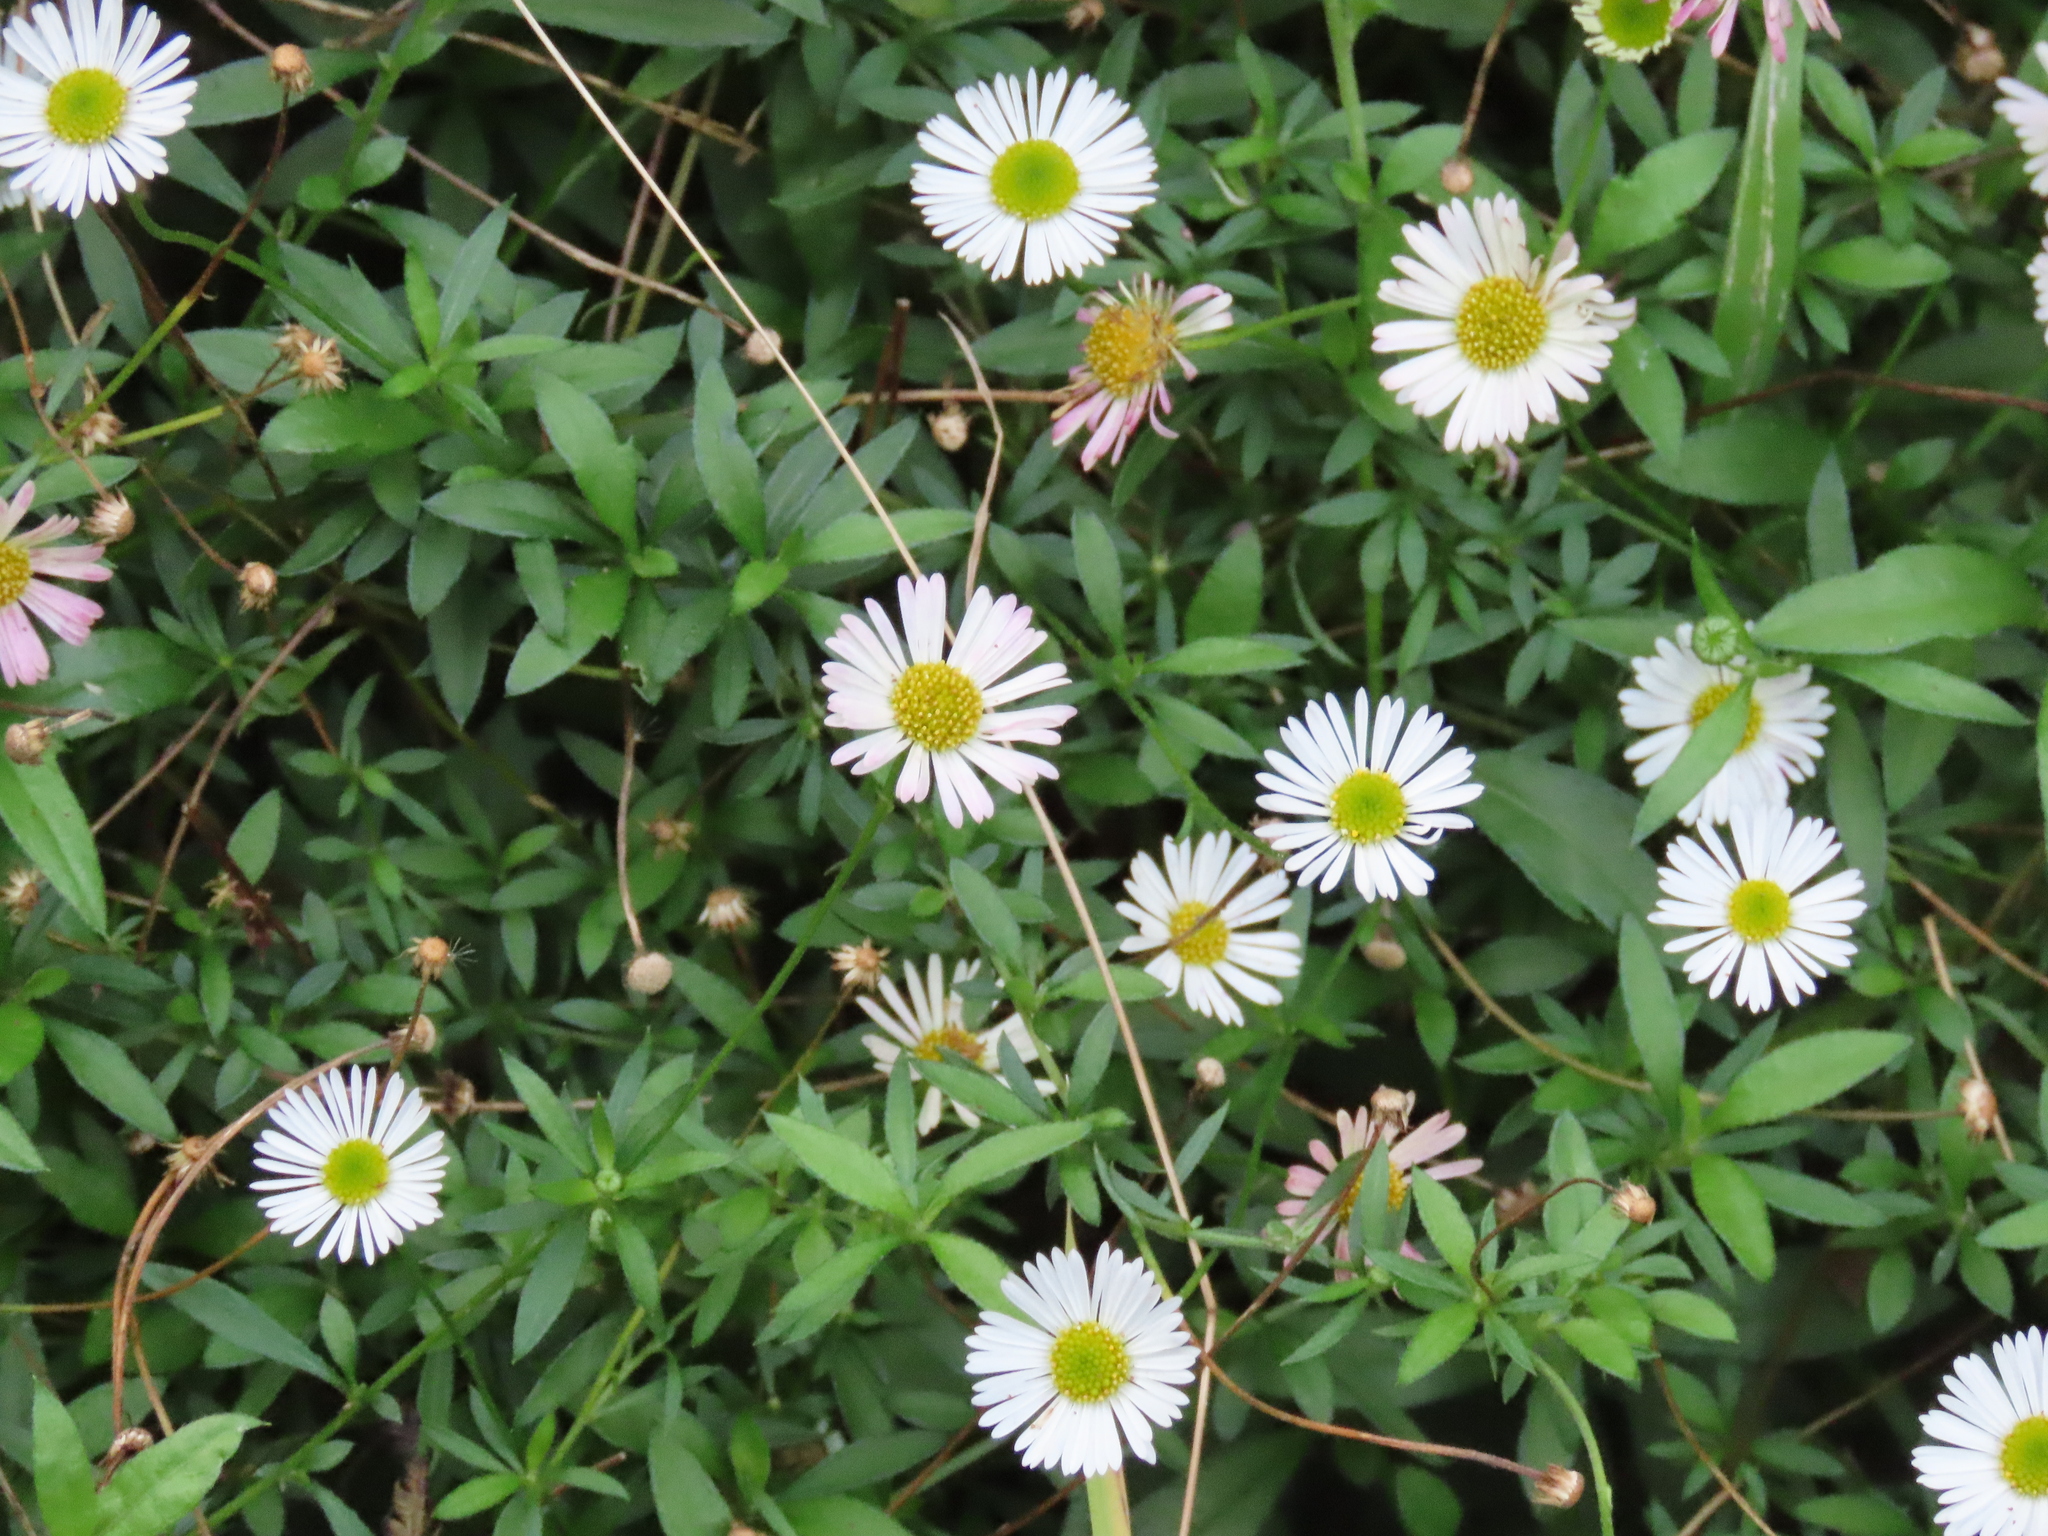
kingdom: Plantae
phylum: Tracheophyta
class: Magnoliopsida
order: Asterales
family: Asteraceae
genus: Erigeron
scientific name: Erigeron karvinskianus
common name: Mexican fleabane
